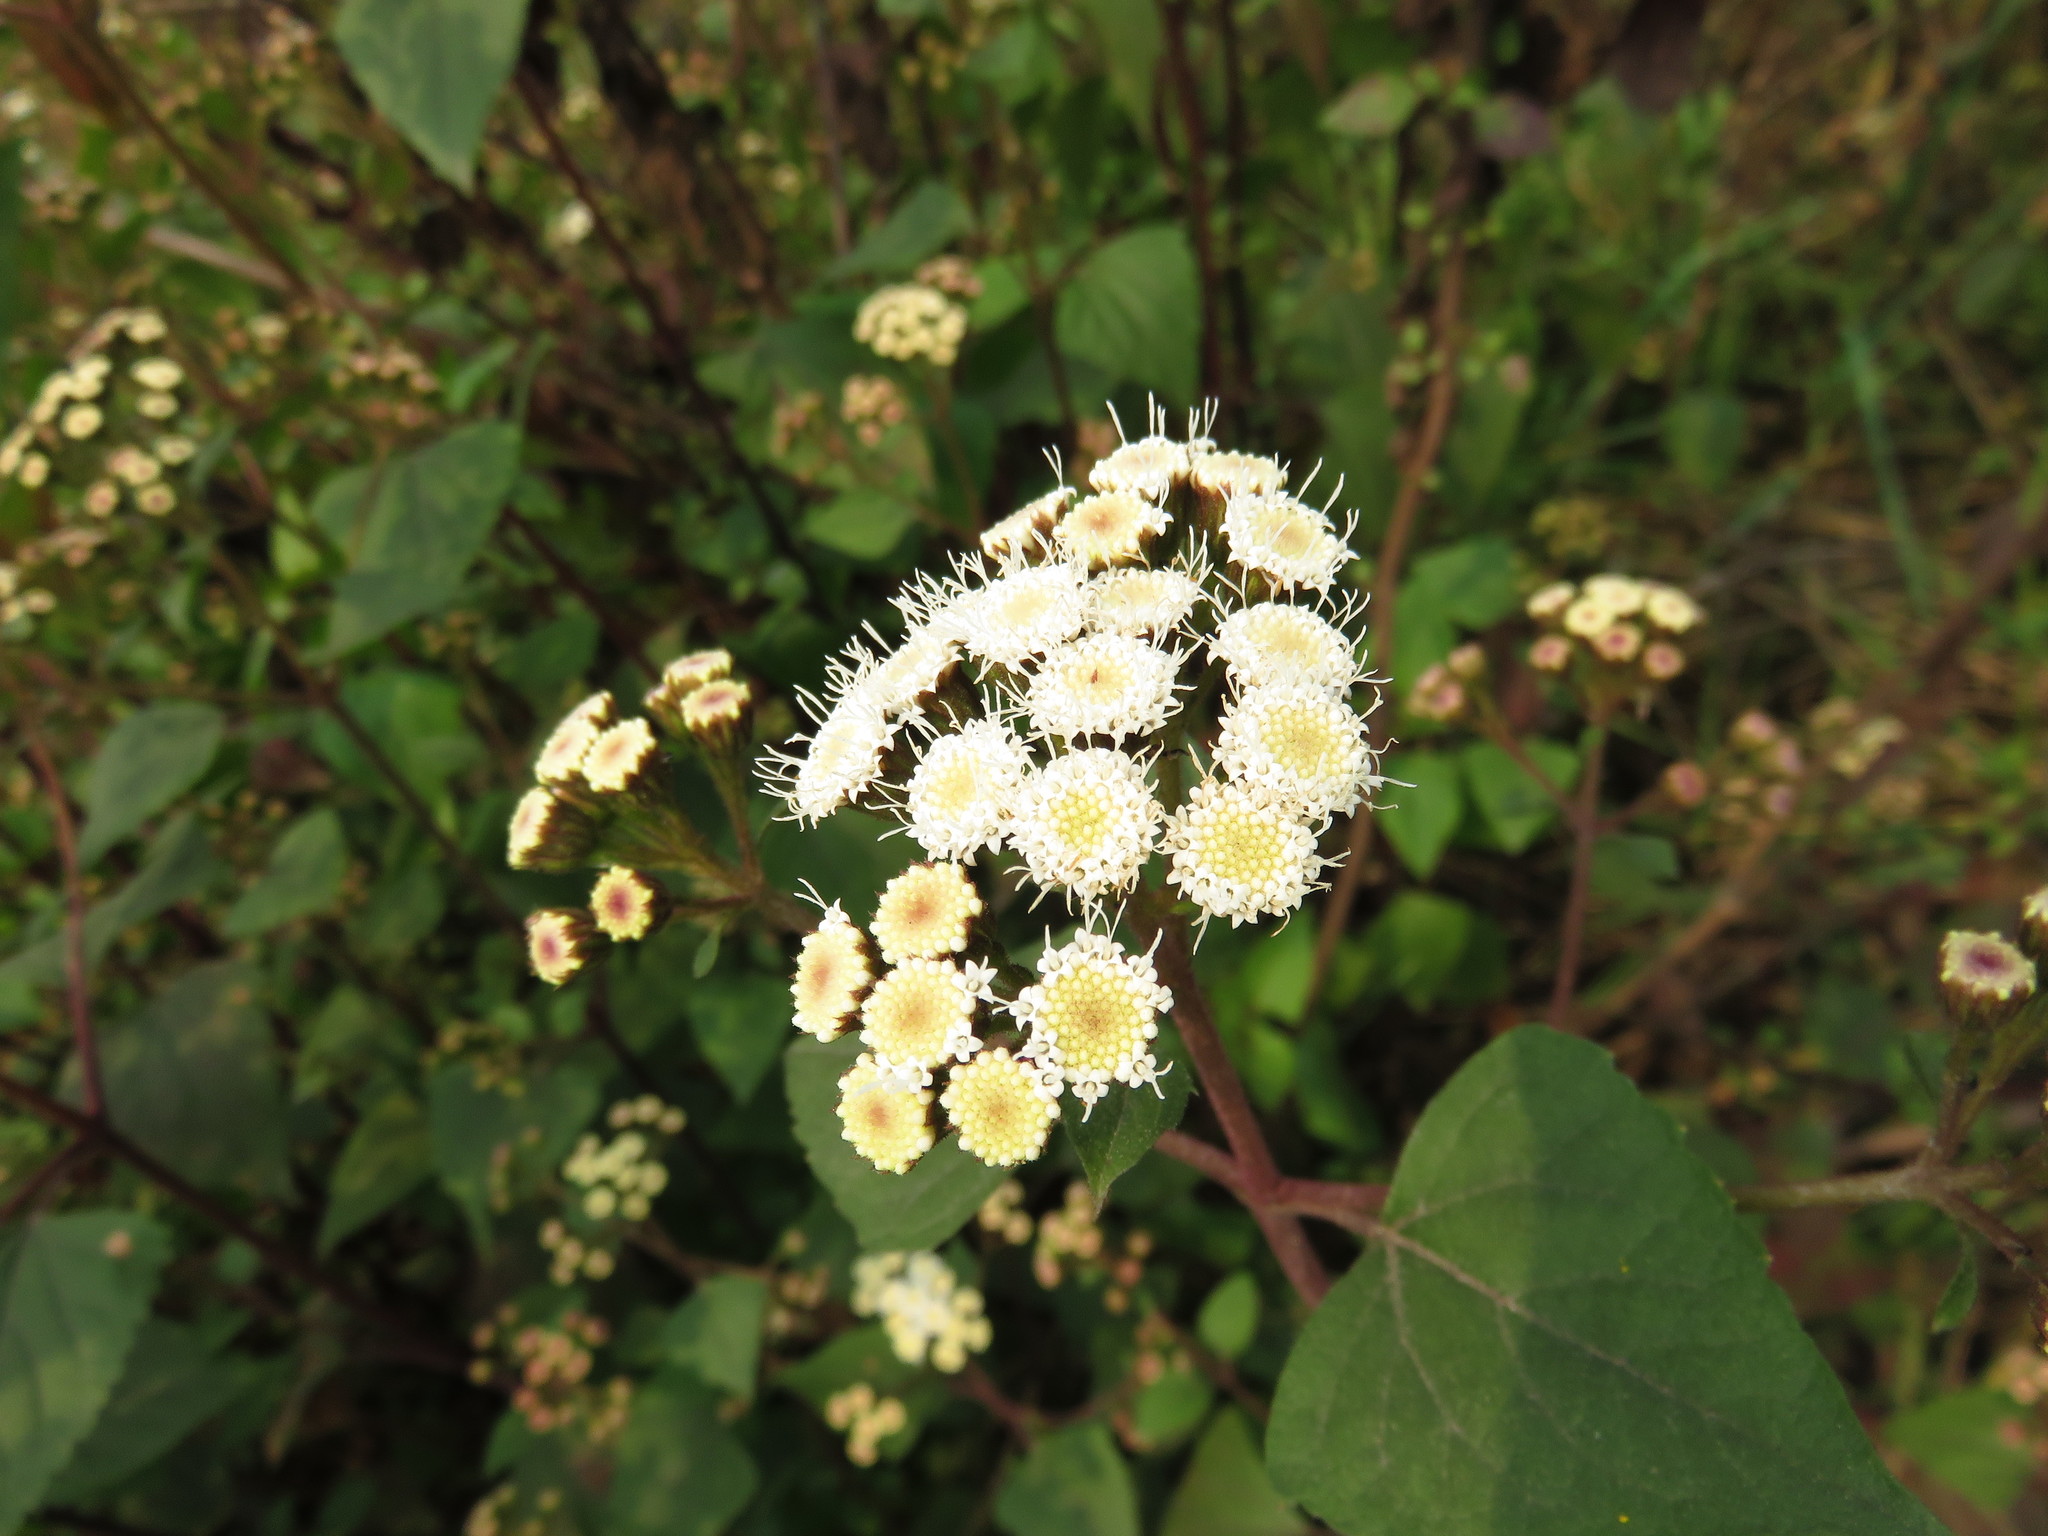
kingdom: Plantae
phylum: Tracheophyta
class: Magnoliopsida
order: Asterales
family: Asteraceae
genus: Ageratina
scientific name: Ageratina adenophora
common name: Sticky snakeroot
